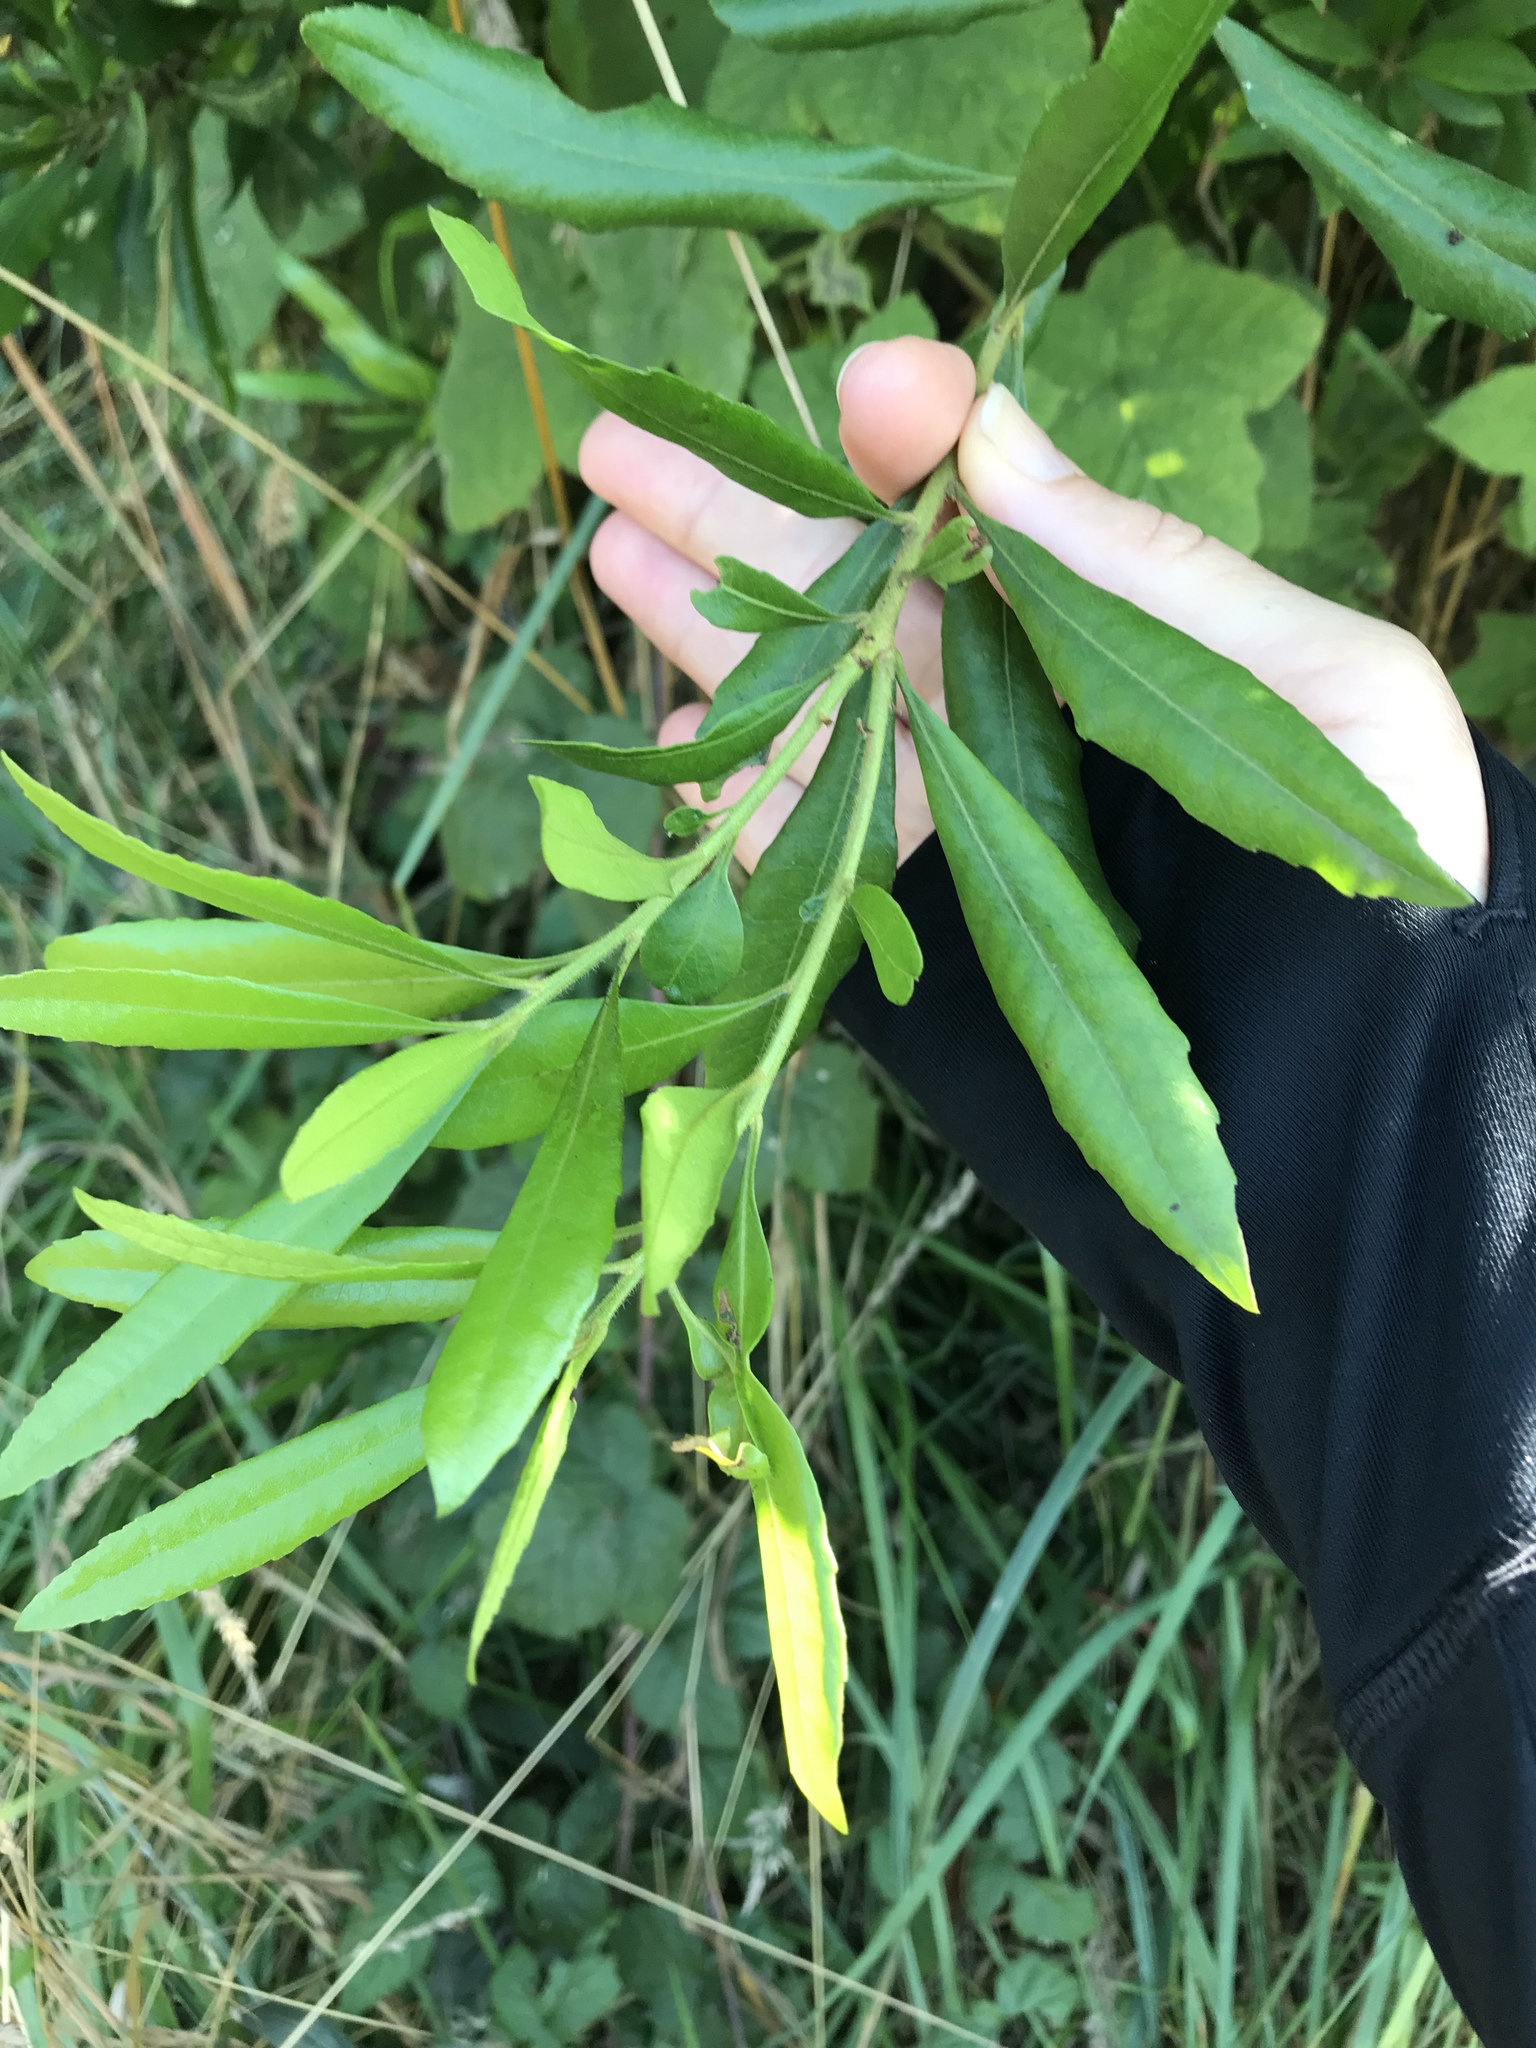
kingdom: Plantae
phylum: Tracheophyta
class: Magnoliopsida
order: Fagales
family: Myricaceae
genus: Morella
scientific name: Morella californica
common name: California wax-myrtle
